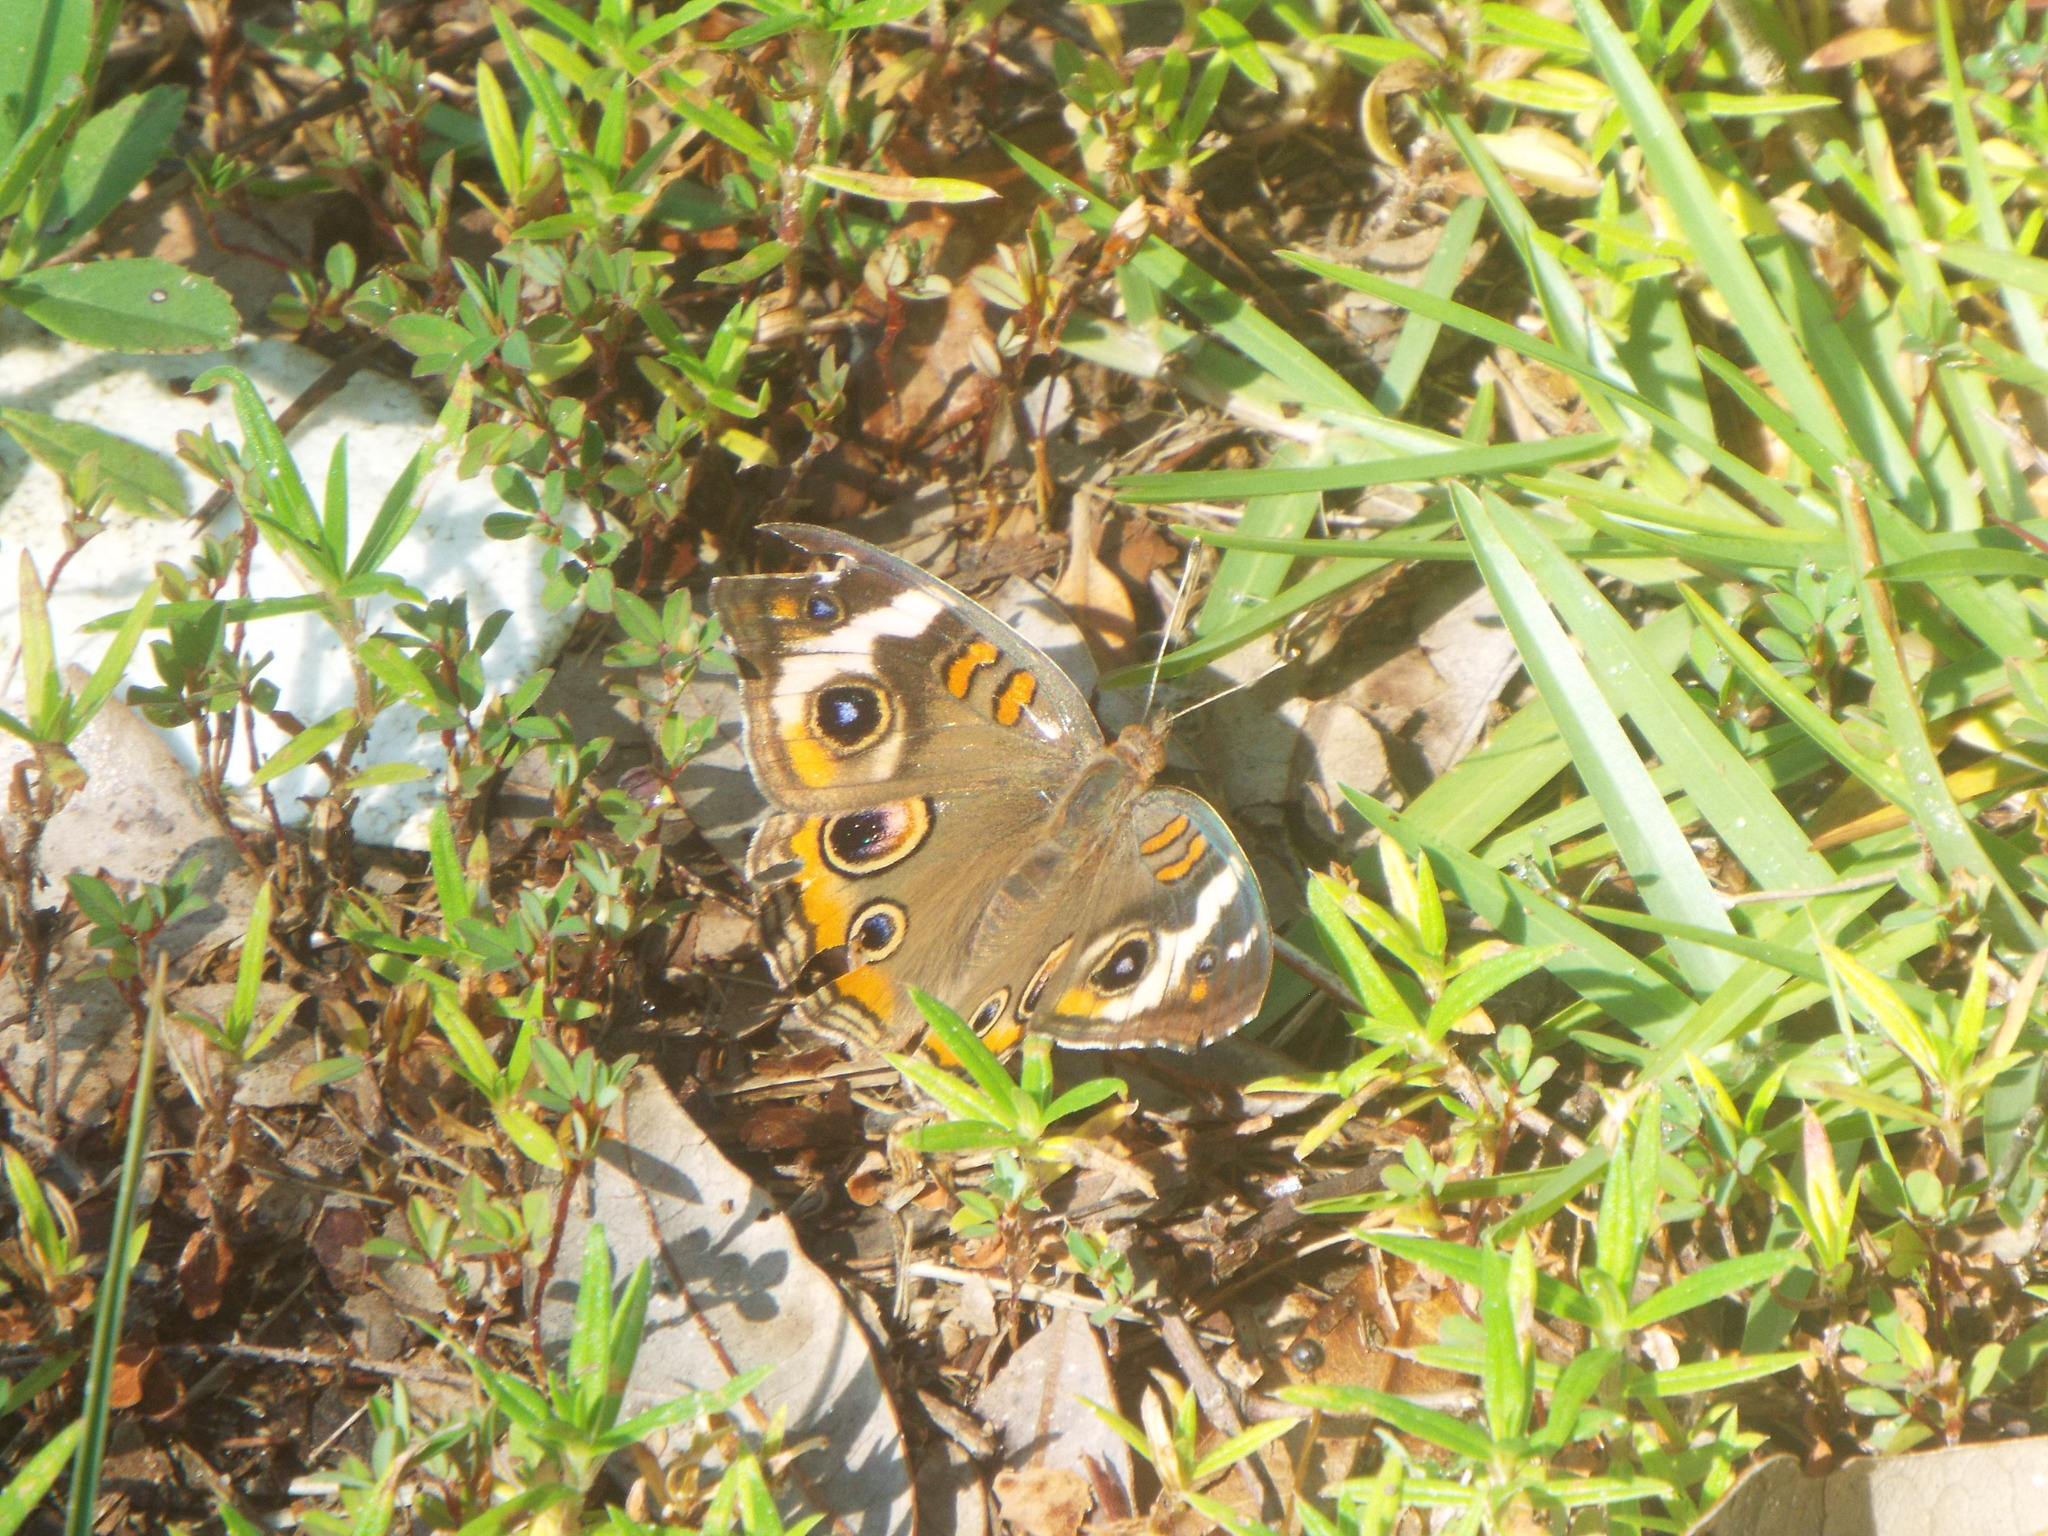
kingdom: Animalia
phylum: Arthropoda
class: Insecta
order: Lepidoptera
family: Nymphalidae
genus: Junonia
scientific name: Junonia coenia
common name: Common buckeye
